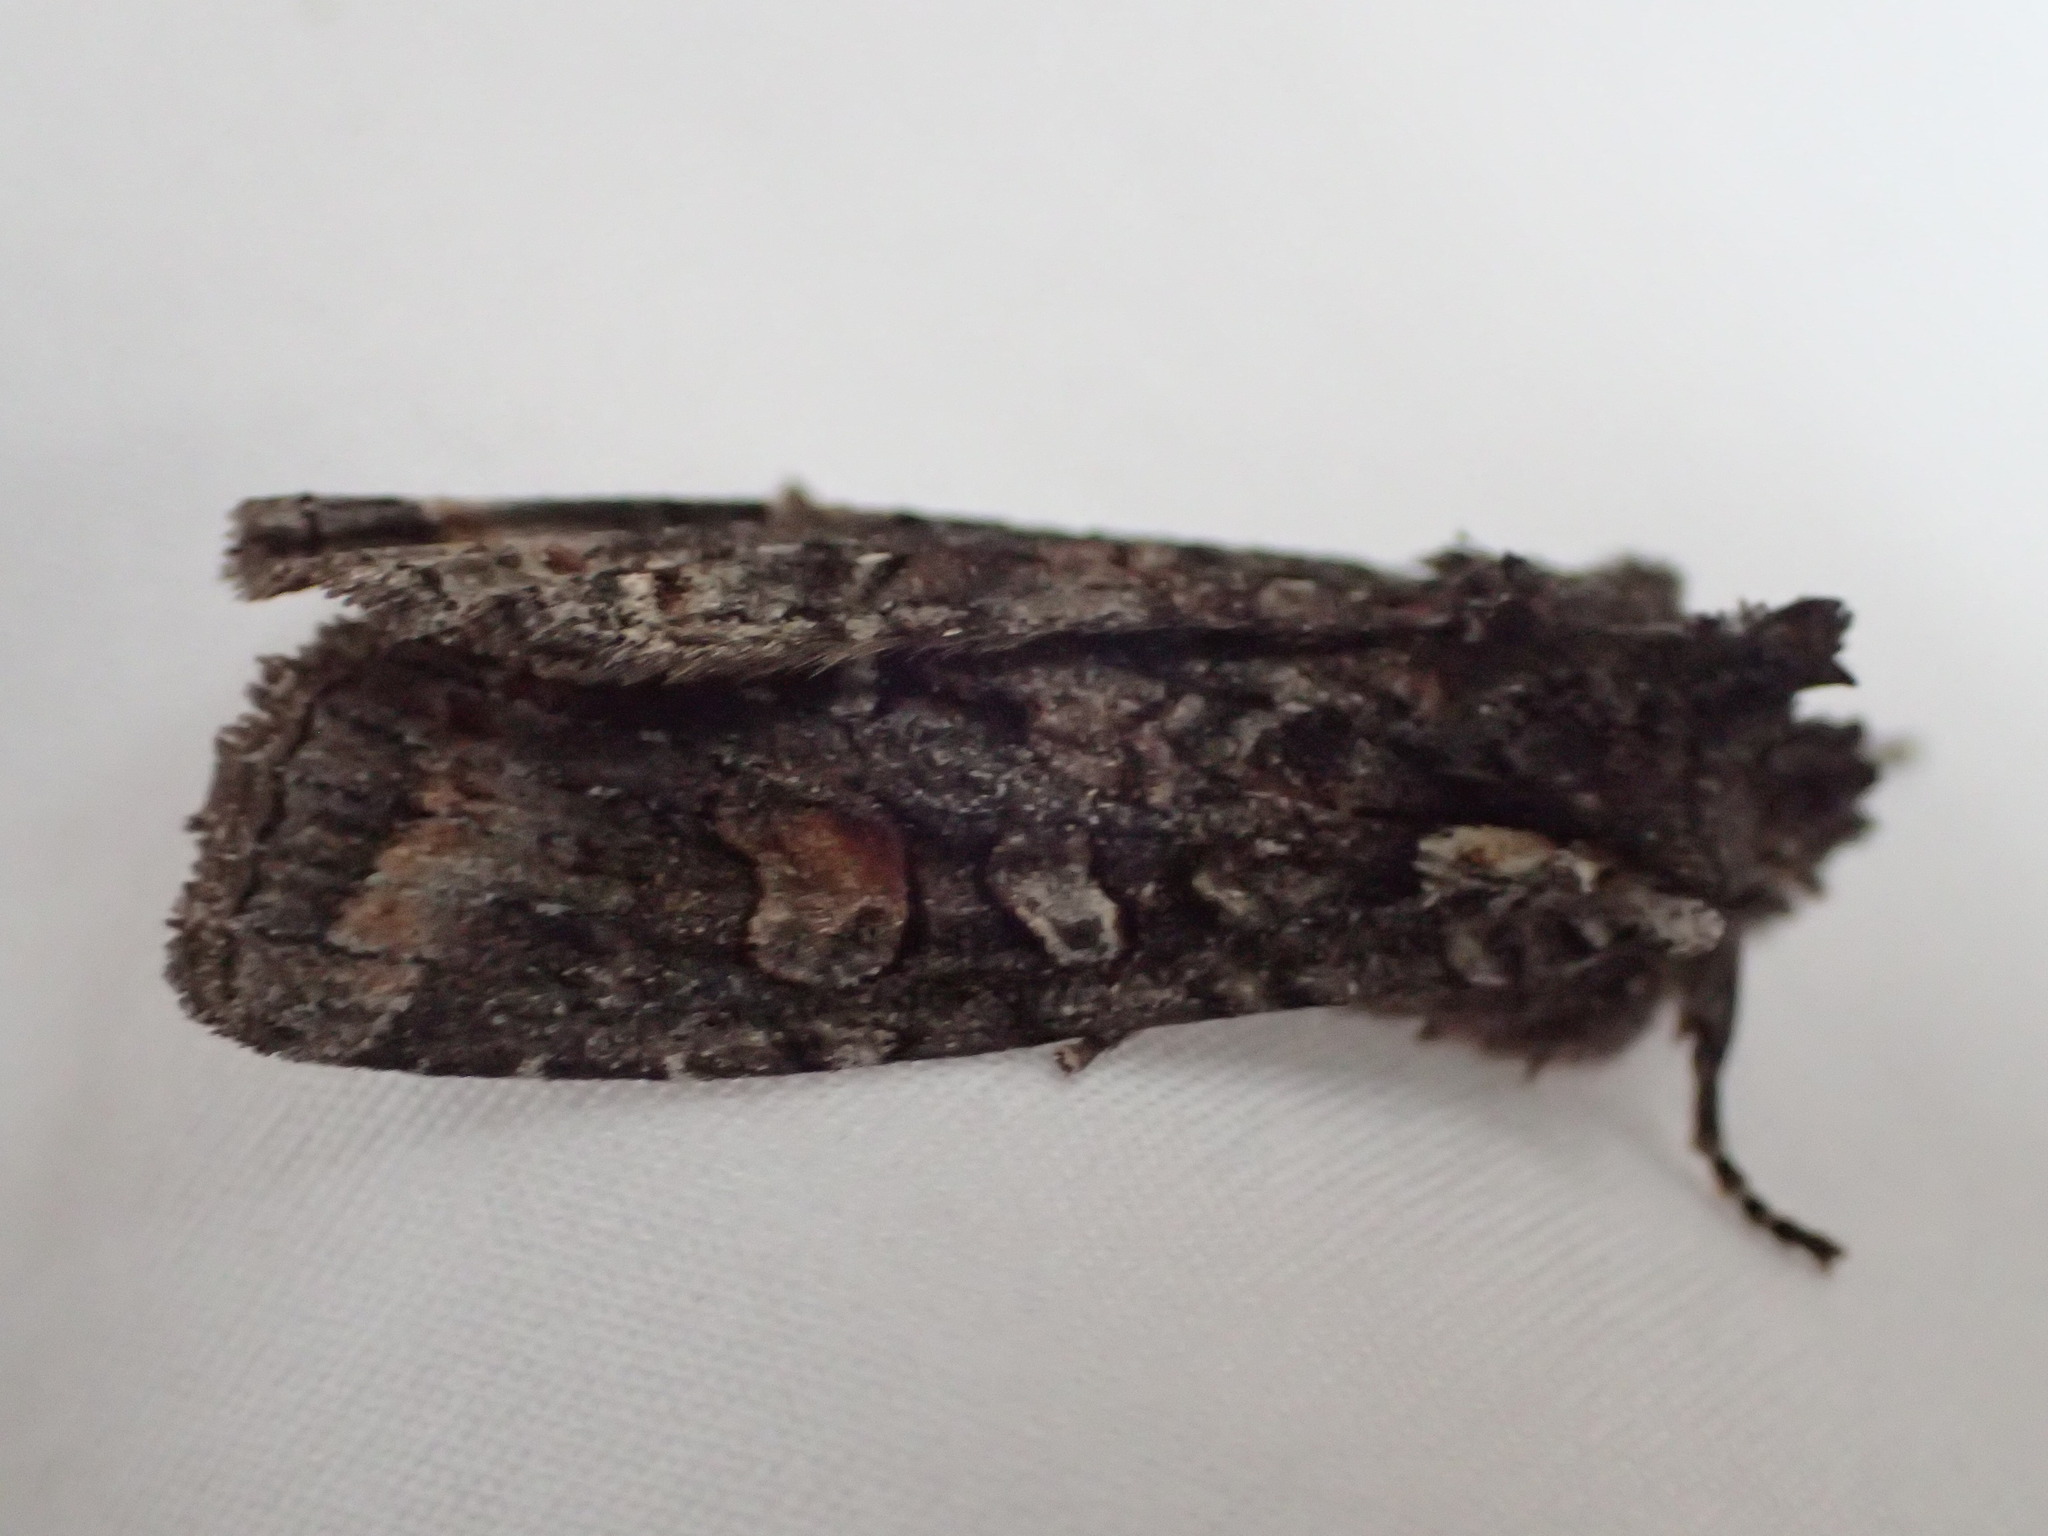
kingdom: Animalia
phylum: Arthropoda
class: Insecta
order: Lepidoptera
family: Noctuidae
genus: Lithophane
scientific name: Lithophane pexata
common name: Plush-naped pinion moth
